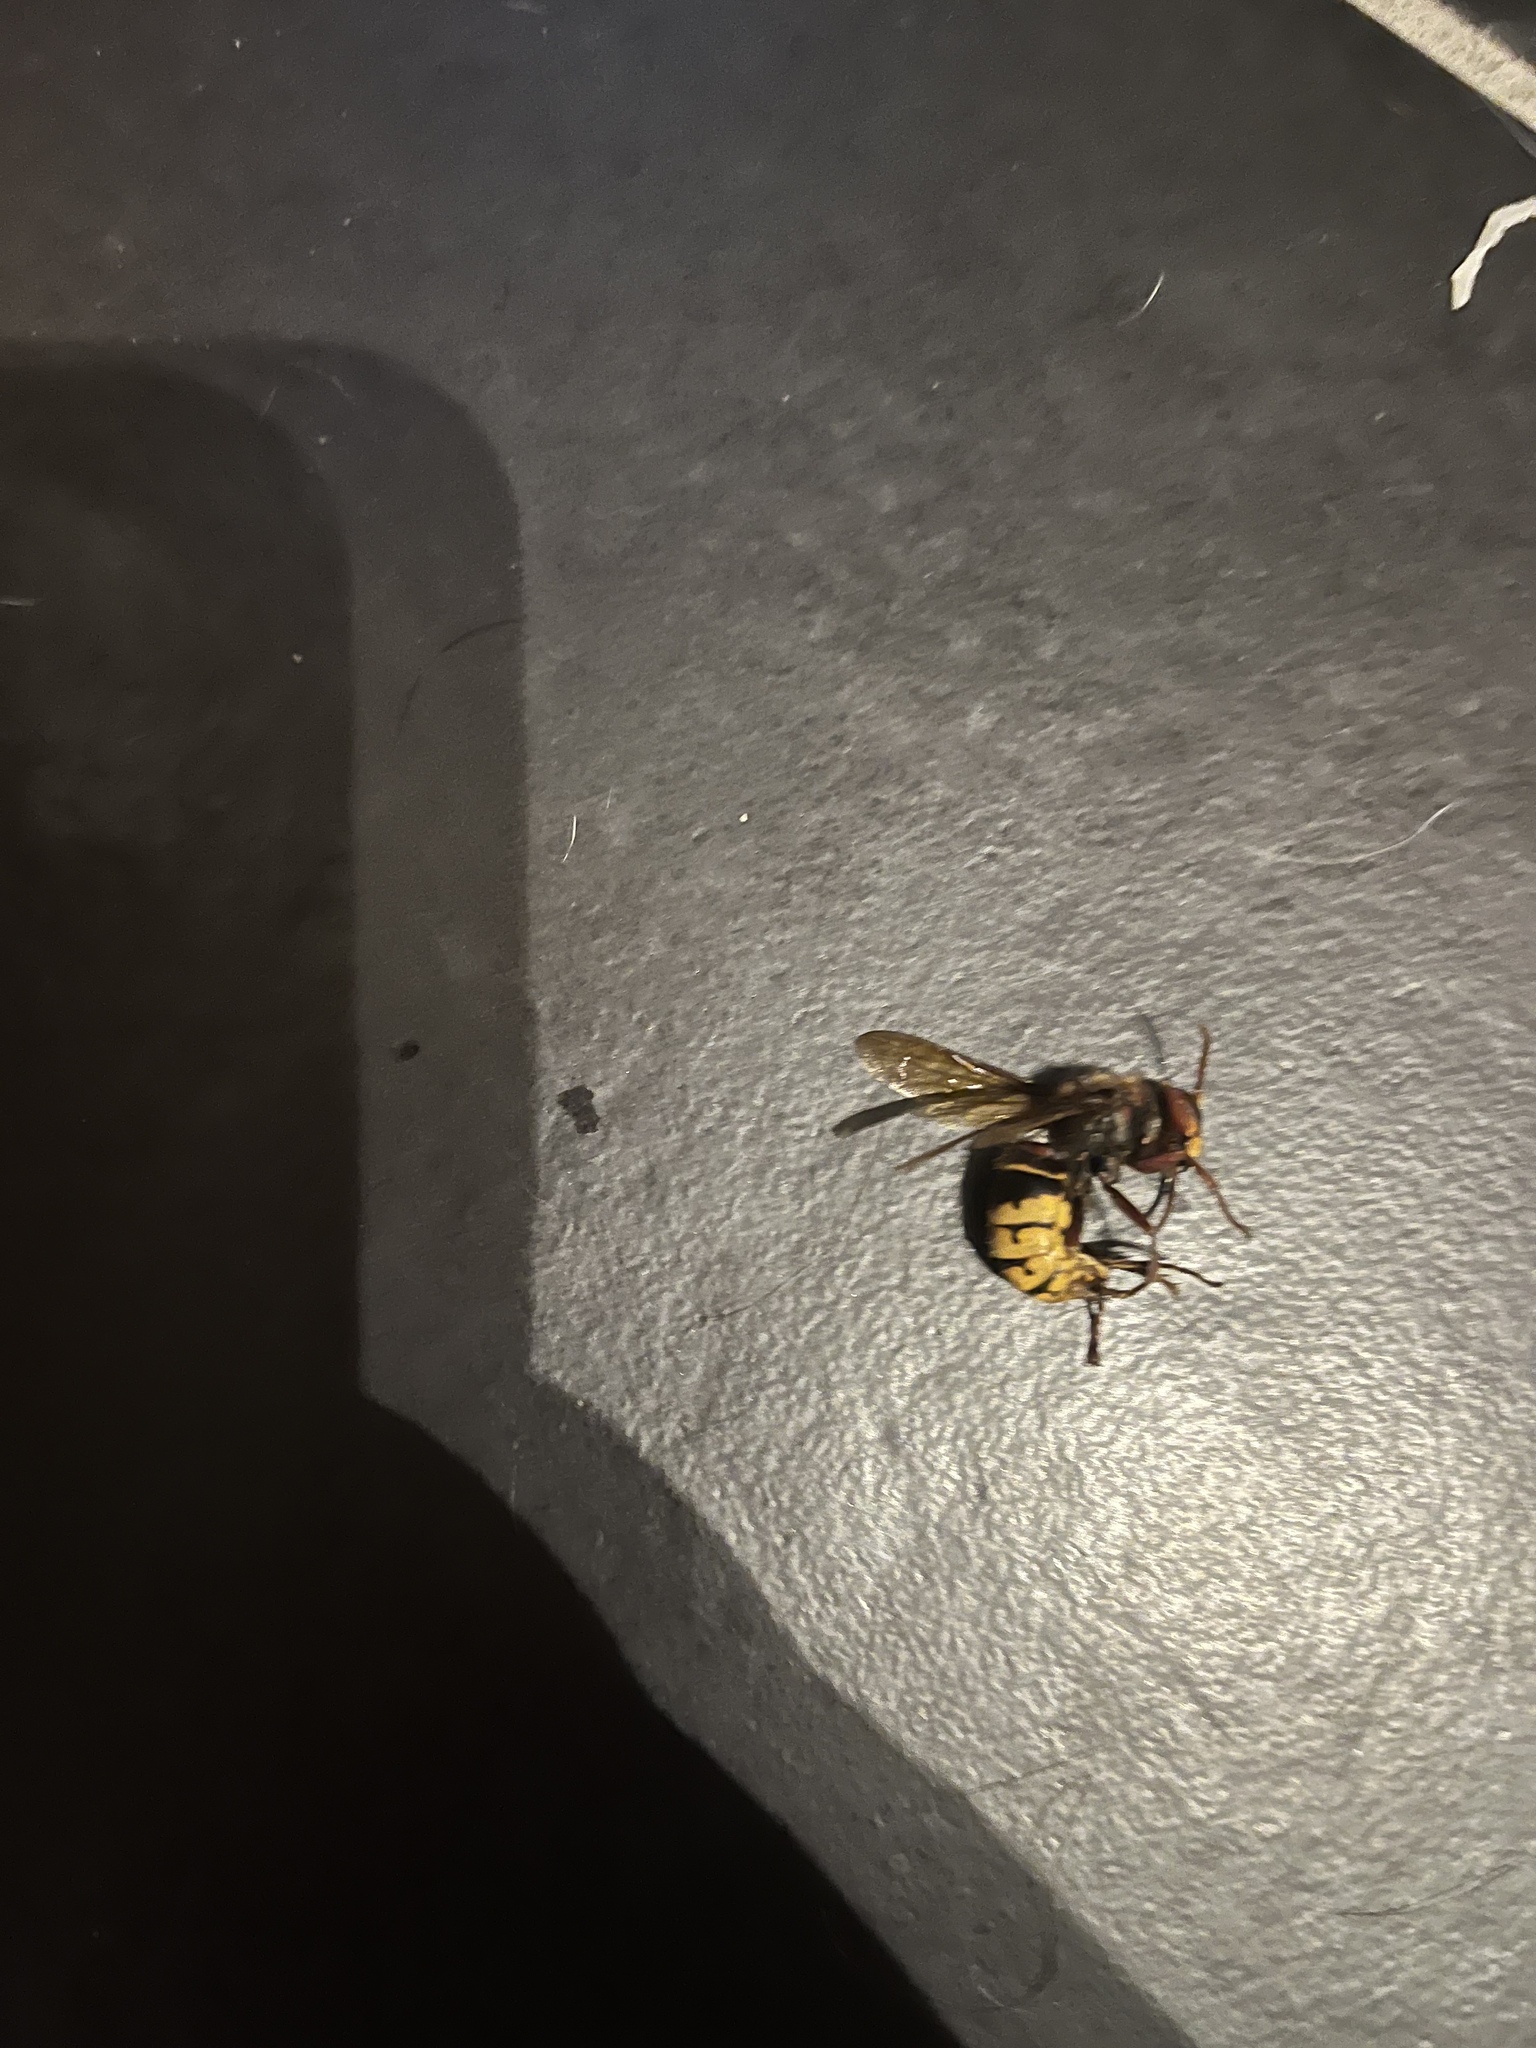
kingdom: Animalia
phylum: Arthropoda
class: Insecta
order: Hymenoptera
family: Vespidae
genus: Vespa
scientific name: Vespa crabro
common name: Hornet
